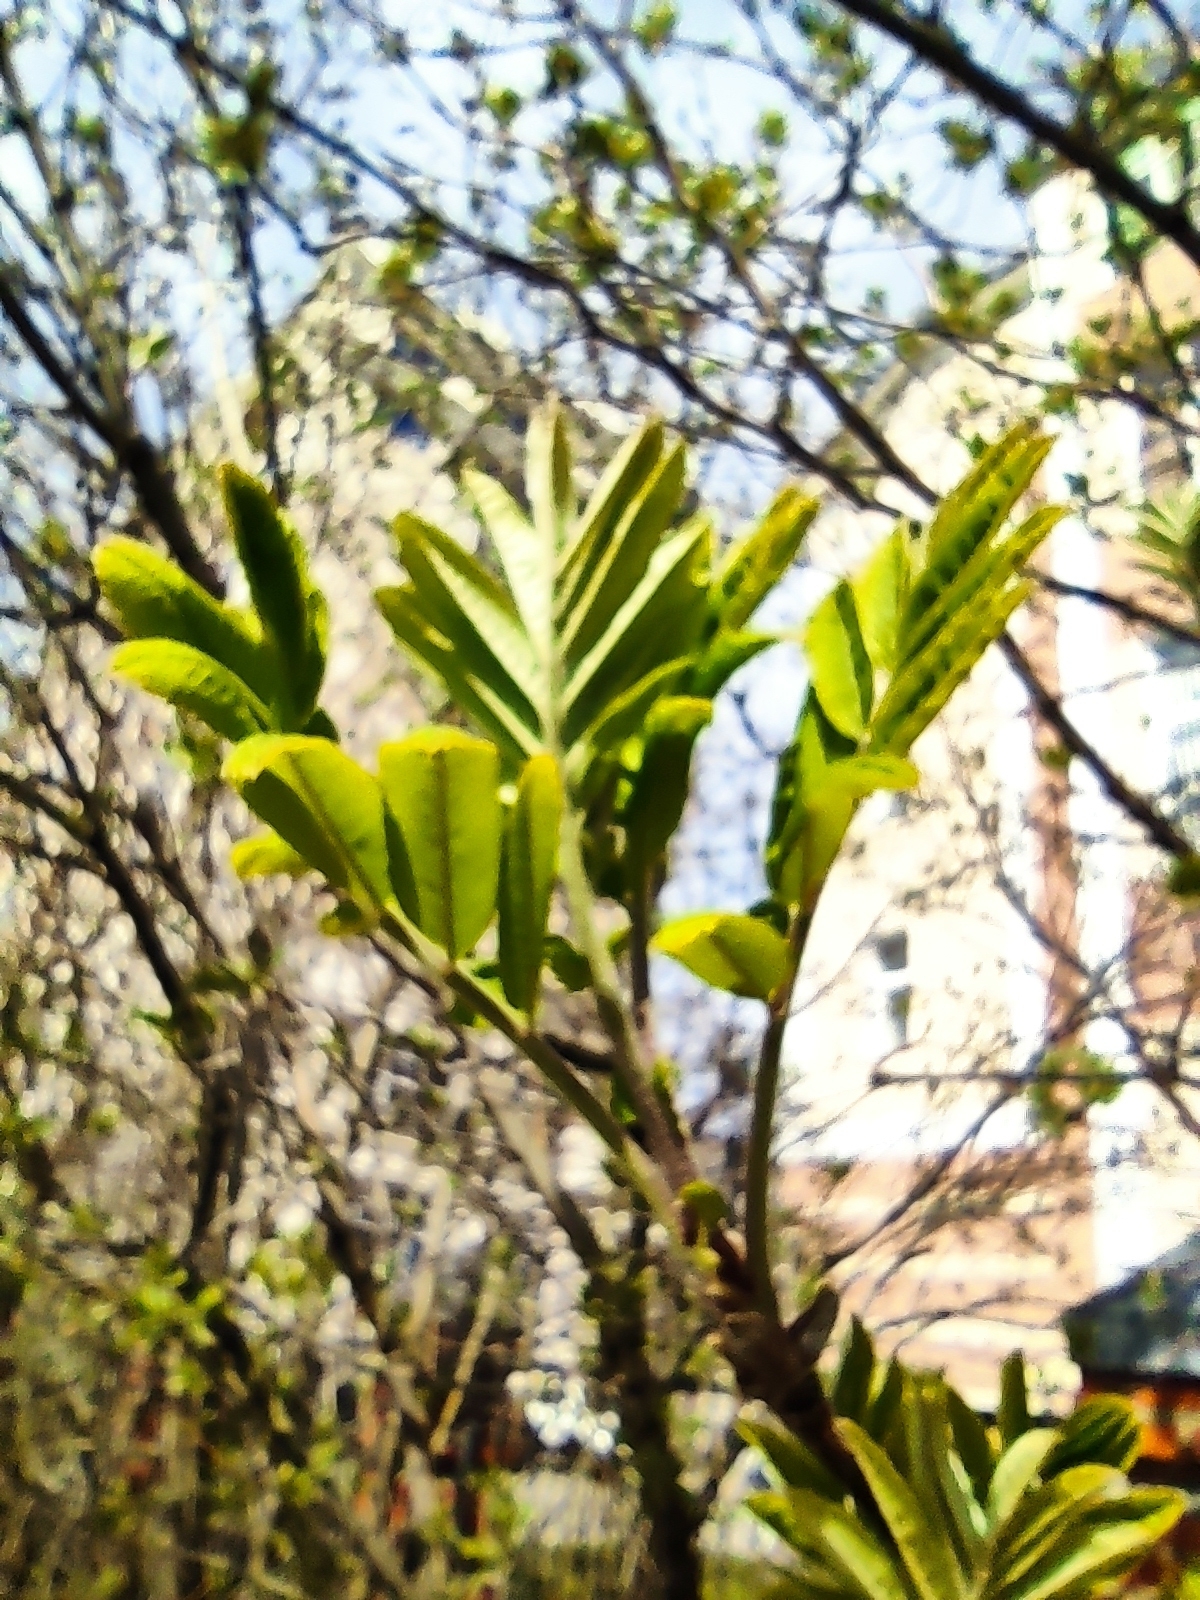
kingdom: Plantae
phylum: Tracheophyta
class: Magnoliopsida
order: Rosales
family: Rosaceae
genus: Sorbus
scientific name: Sorbus aucuparia
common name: Rowan
